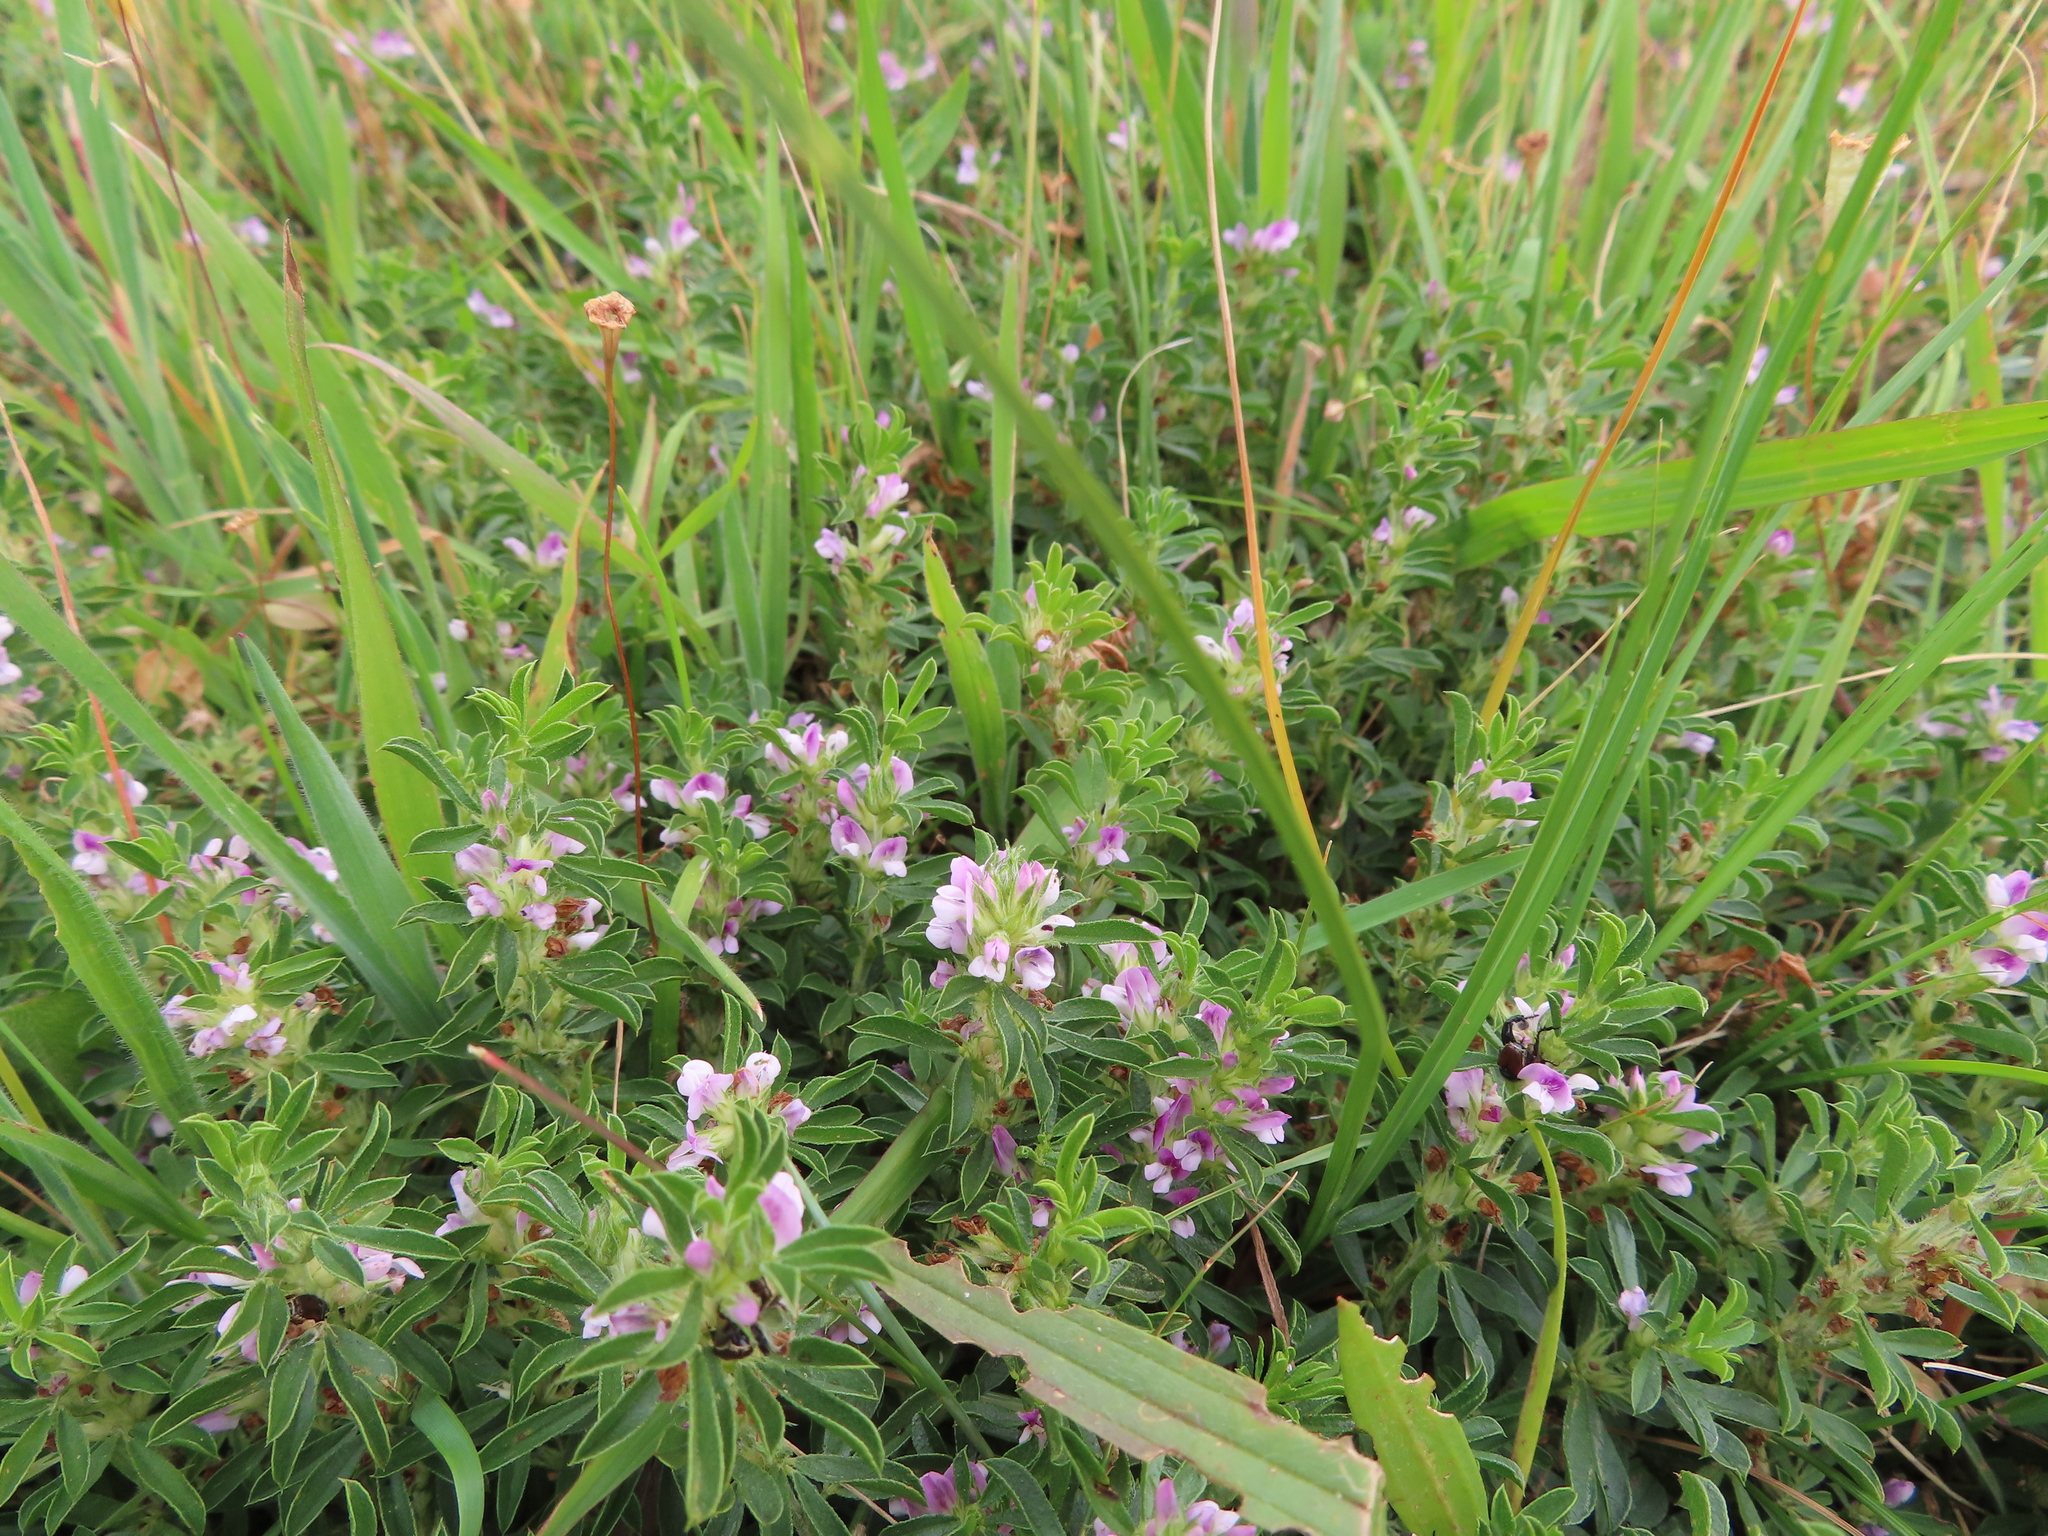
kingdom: Plantae
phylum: Tracheophyta
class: Magnoliopsida
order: Fabales
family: Fabaceae
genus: Psoralea
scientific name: Psoralea
